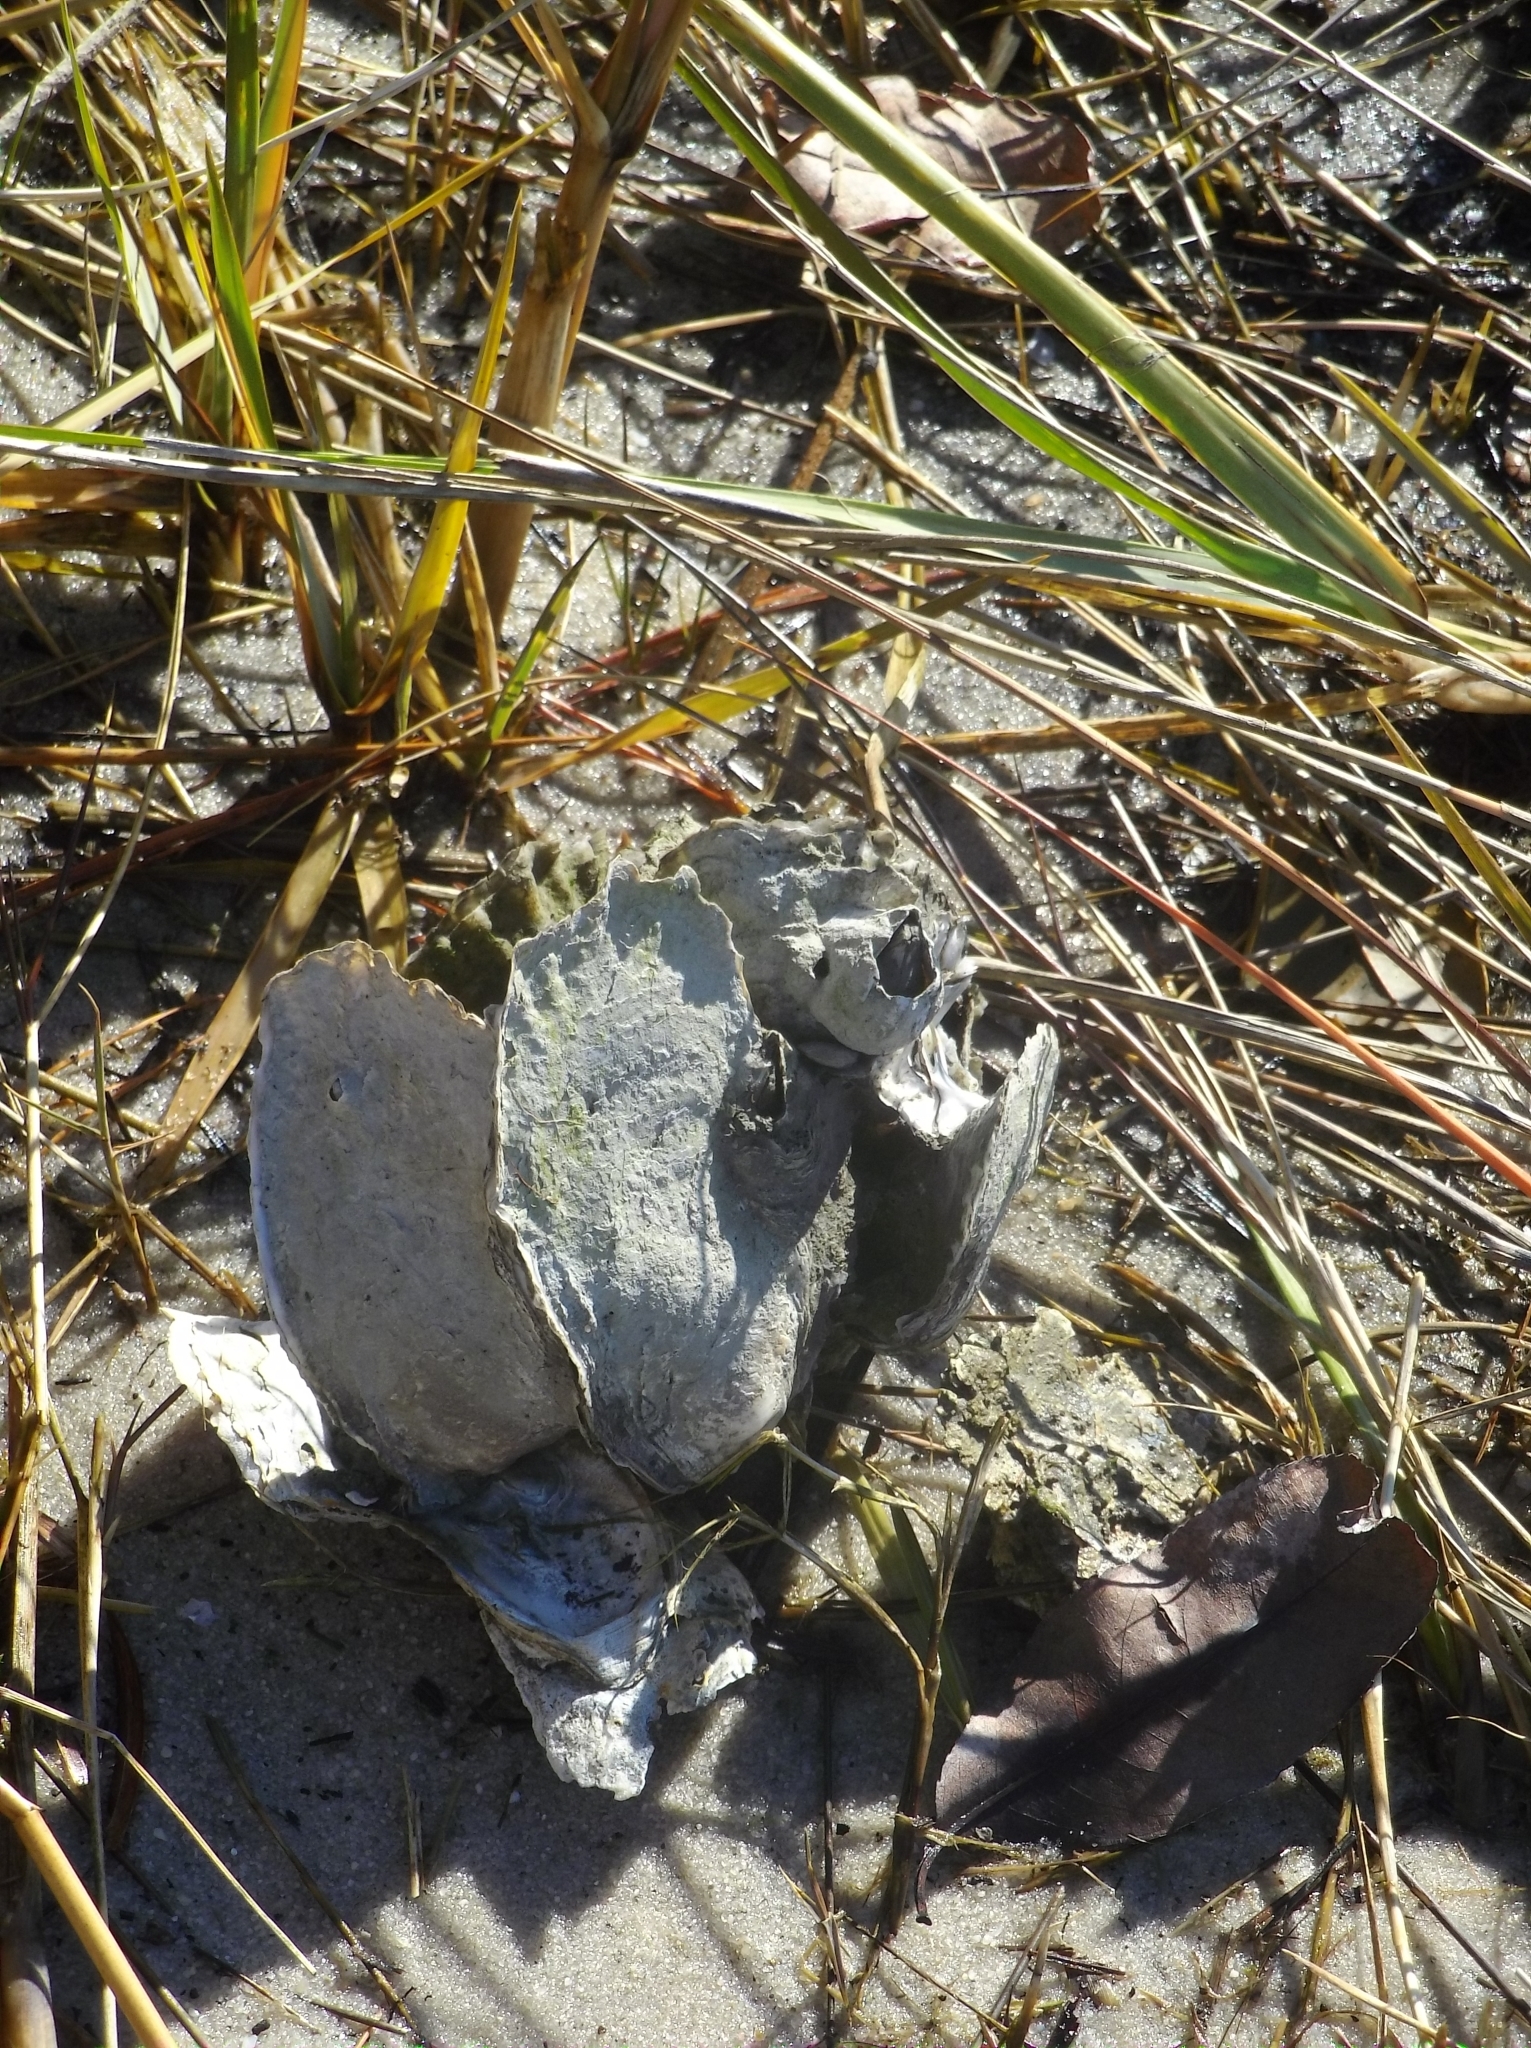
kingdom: Animalia
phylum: Mollusca
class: Bivalvia
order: Ostreida
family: Ostreidae
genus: Crassostrea
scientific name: Crassostrea virginica
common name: American oyster
